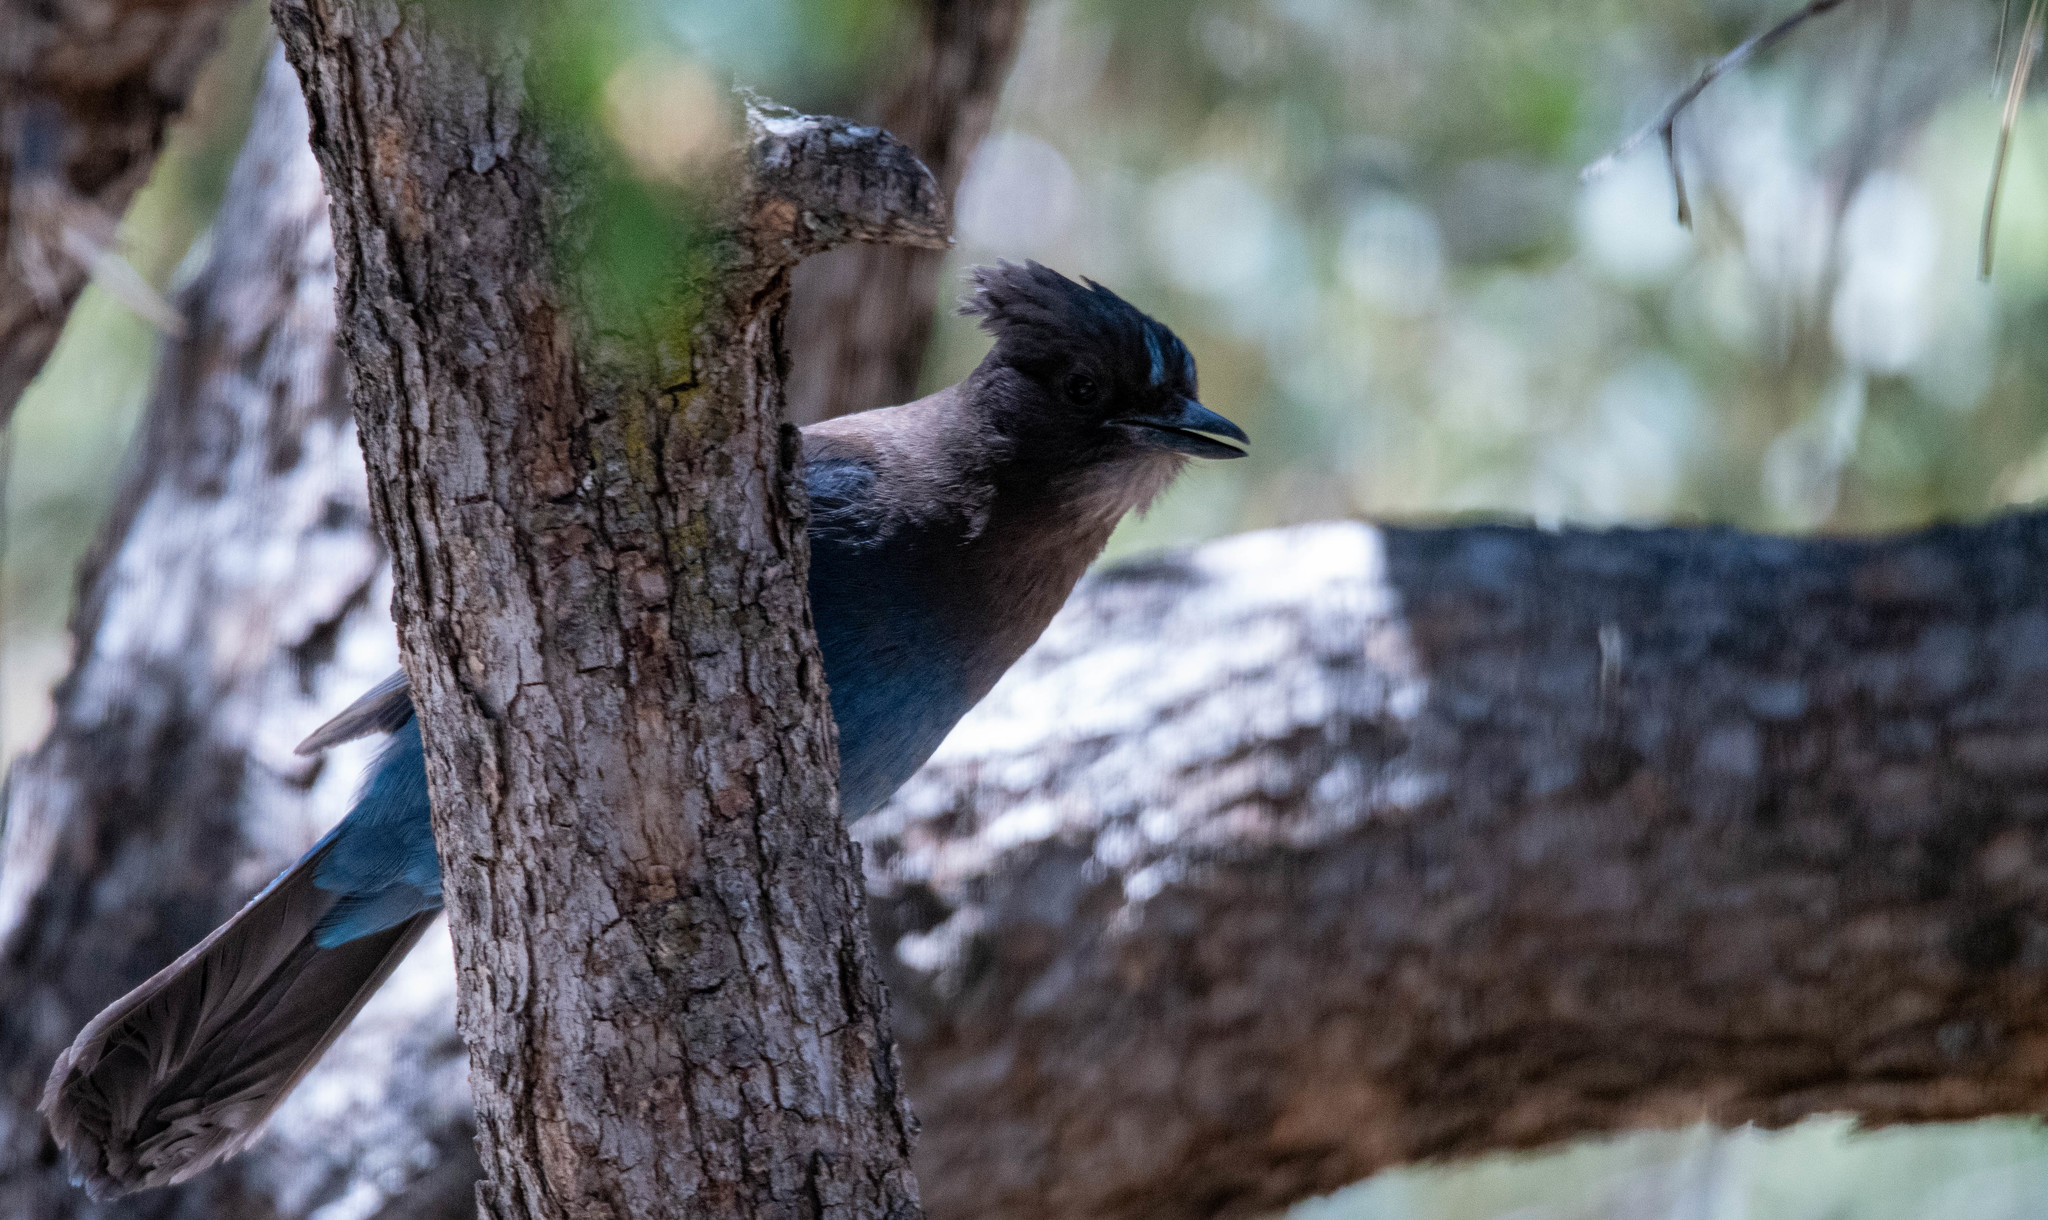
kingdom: Animalia
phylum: Chordata
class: Aves
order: Passeriformes
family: Corvidae
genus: Cyanocitta
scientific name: Cyanocitta stelleri
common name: Steller's jay
